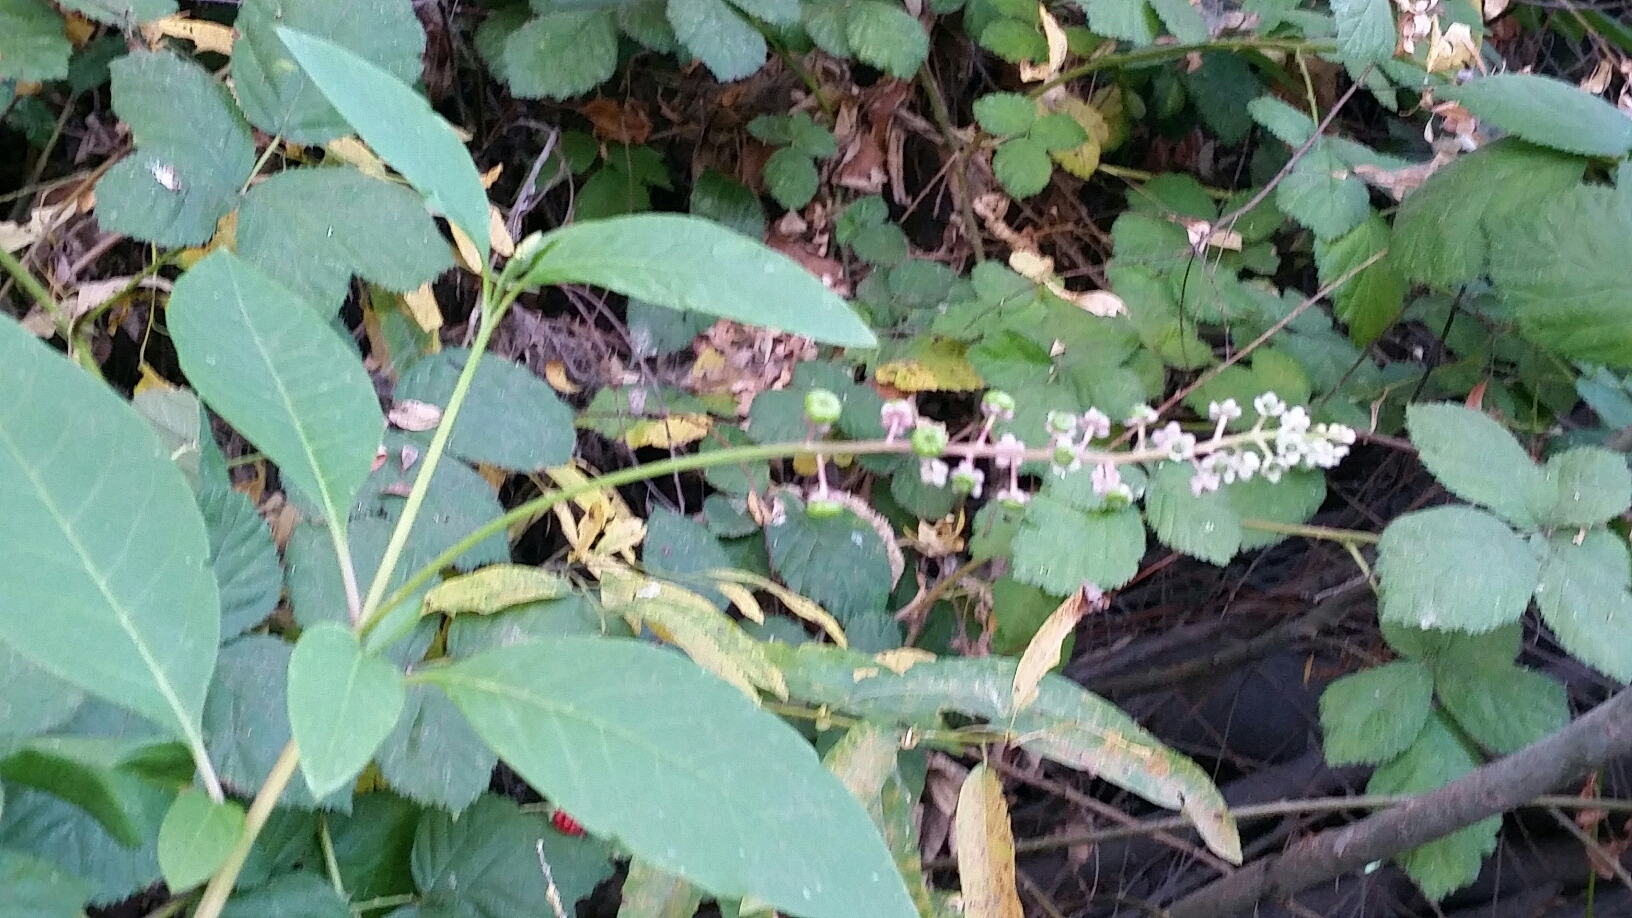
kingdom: Plantae
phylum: Tracheophyta
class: Magnoliopsida
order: Caryophyllales
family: Phytolaccaceae
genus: Phytolacca
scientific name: Phytolacca americana
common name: American pokeweed
